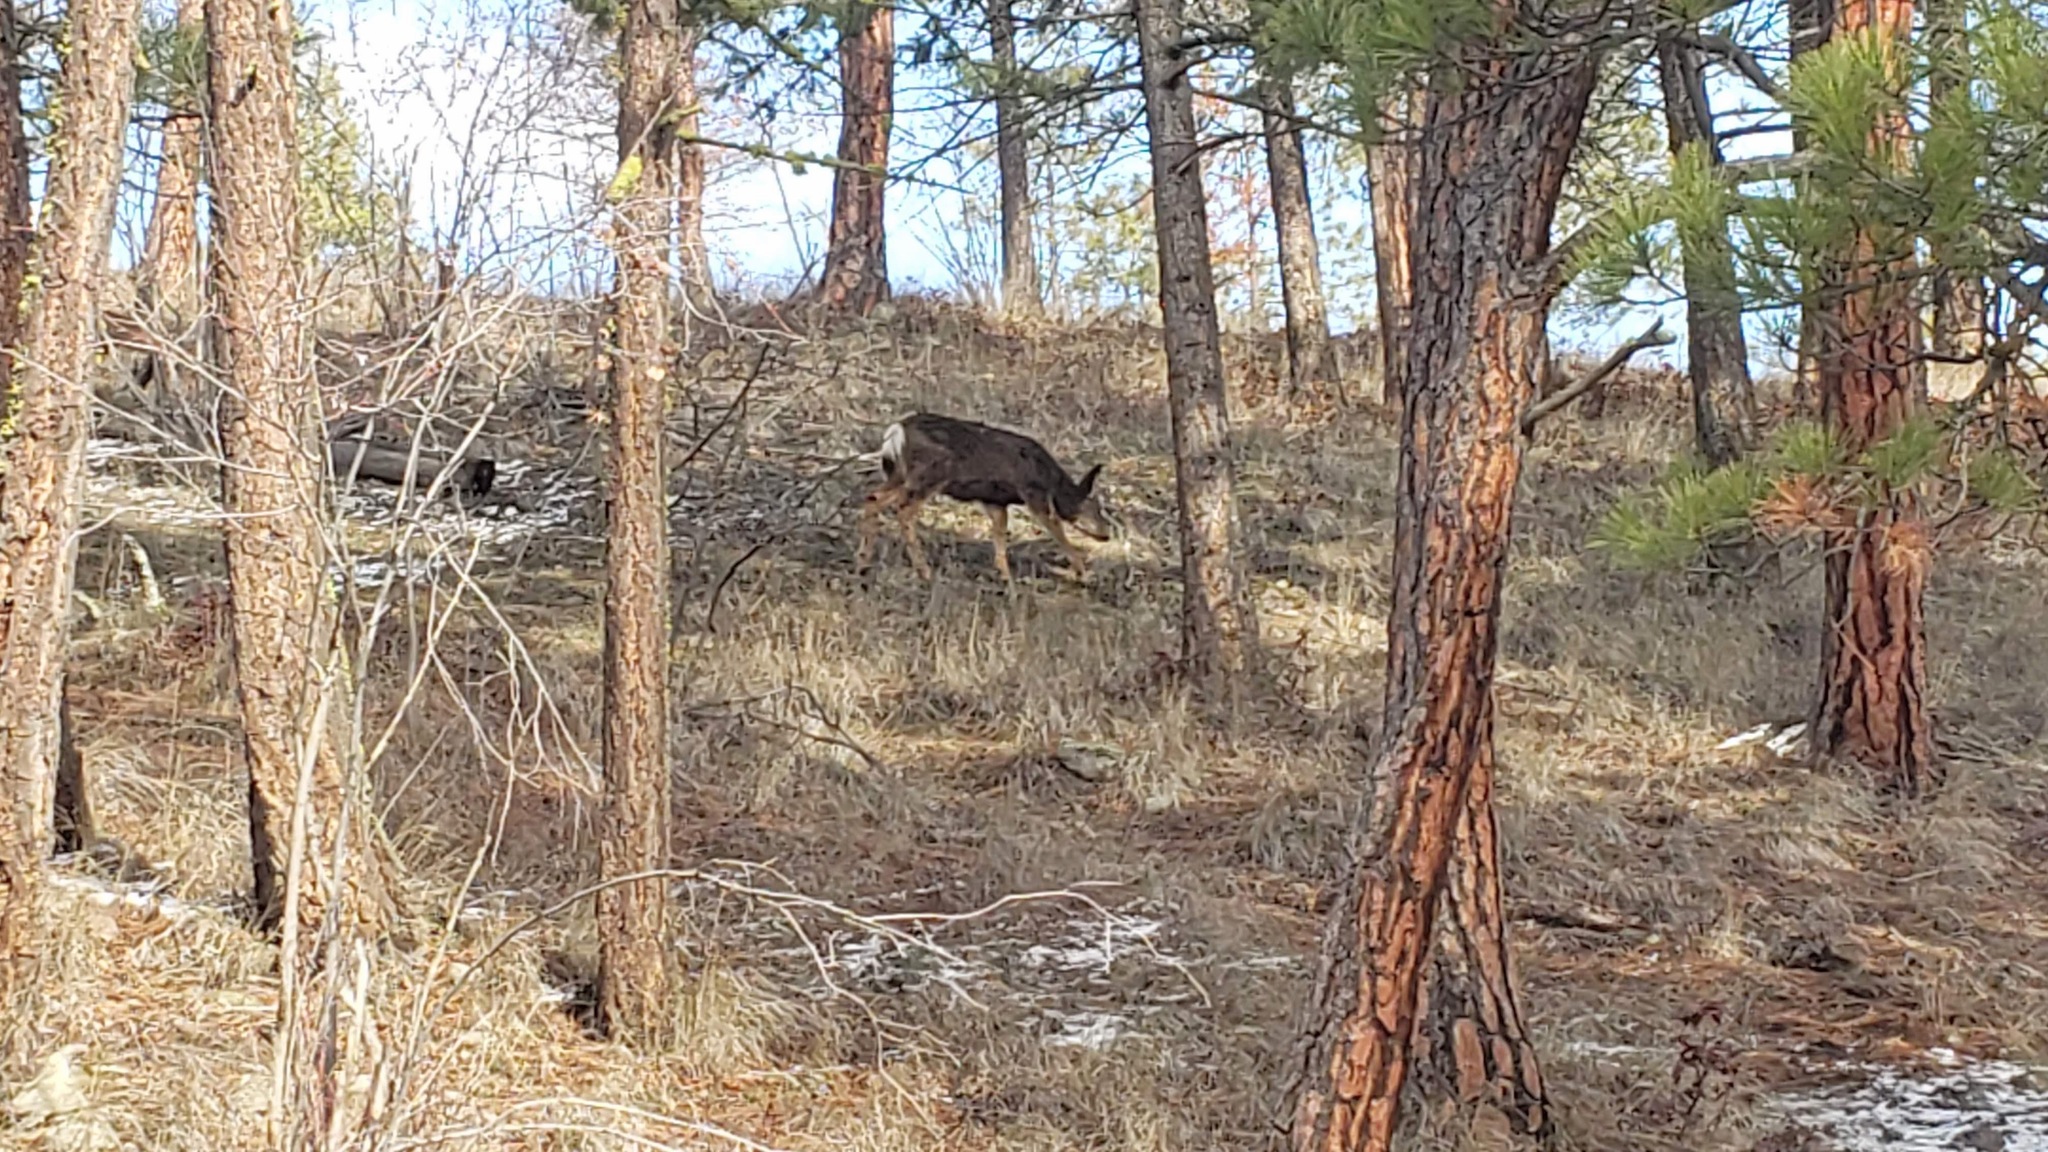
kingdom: Animalia
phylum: Chordata
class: Mammalia
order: Artiodactyla
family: Cervidae
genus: Odocoileus
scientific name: Odocoileus hemionus
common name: Mule deer
